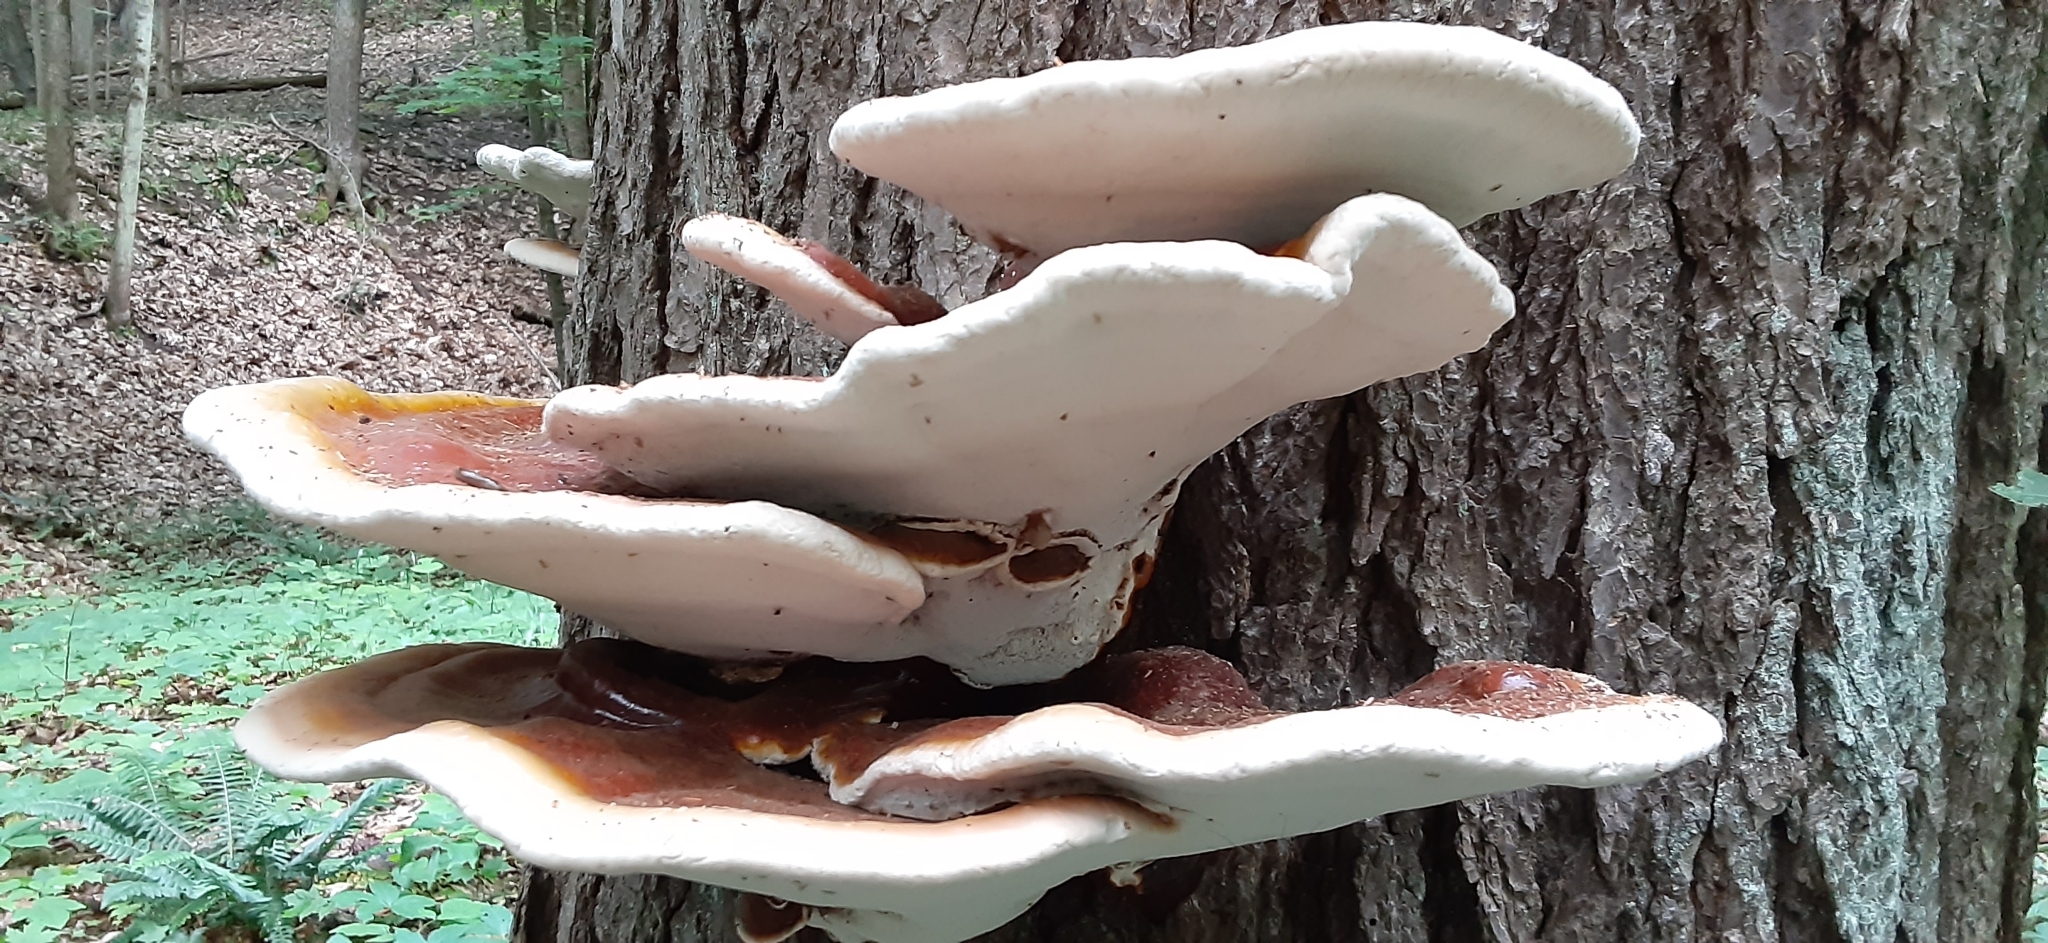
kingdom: Fungi
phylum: Basidiomycota
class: Agaricomycetes
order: Polyporales
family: Polyporaceae
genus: Ganoderma
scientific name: Ganoderma tsugae
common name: Hemlock varnish shelf
